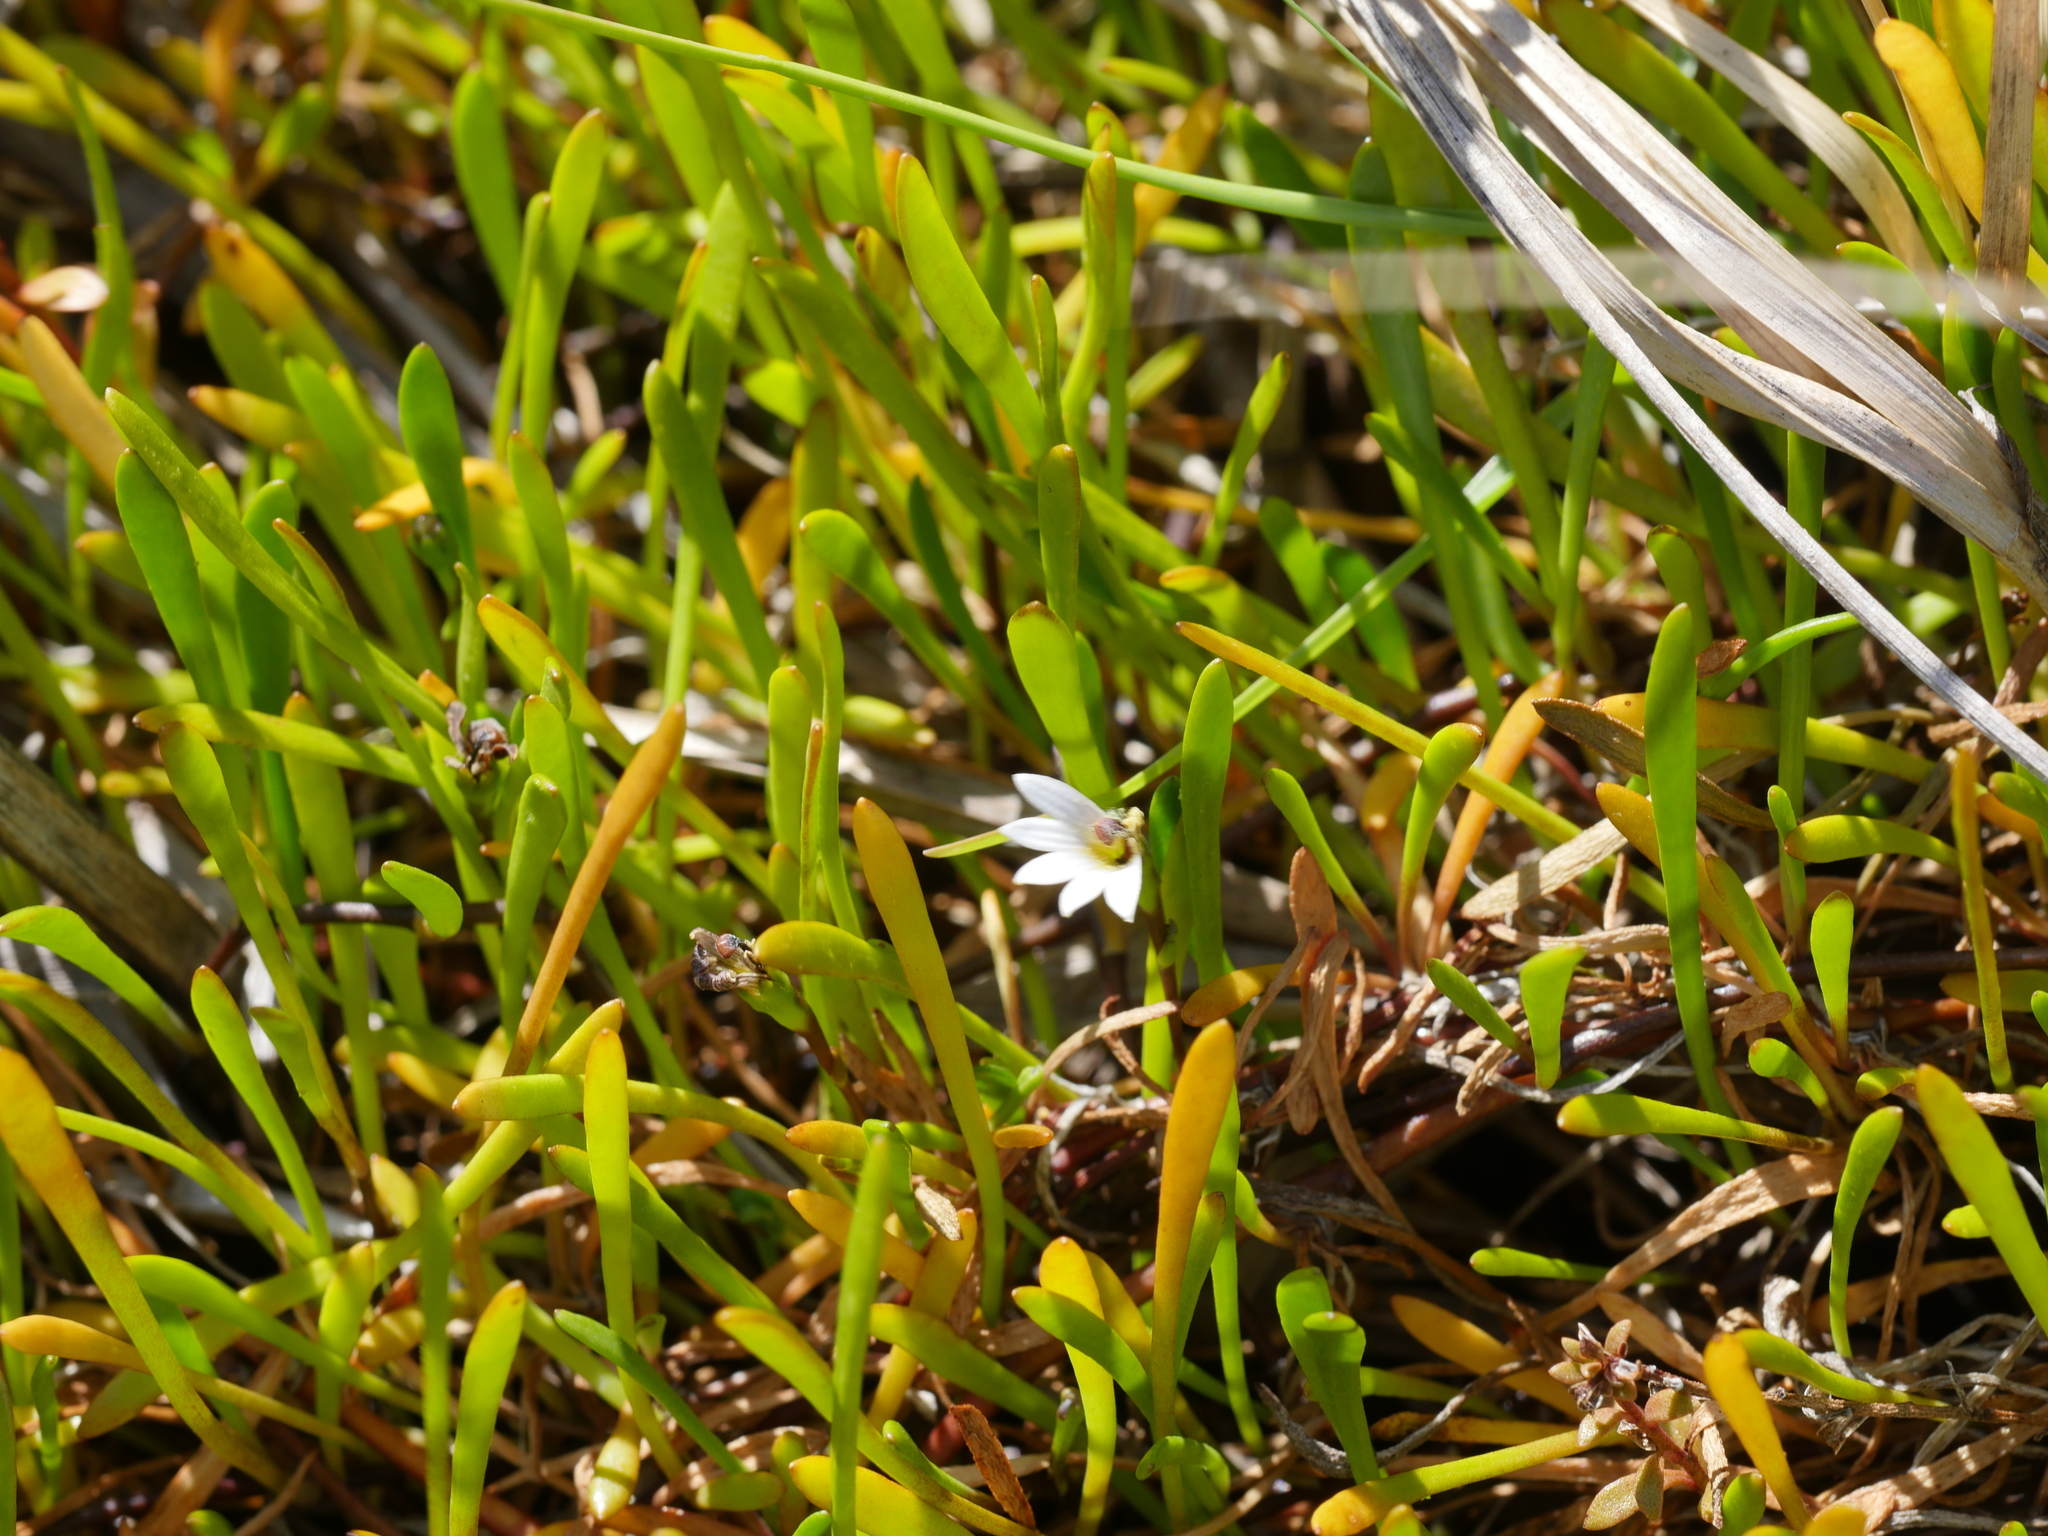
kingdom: Plantae
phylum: Tracheophyta
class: Magnoliopsida
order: Asterales
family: Goodeniaceae
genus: Goodenia
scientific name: Goodenia radicans
